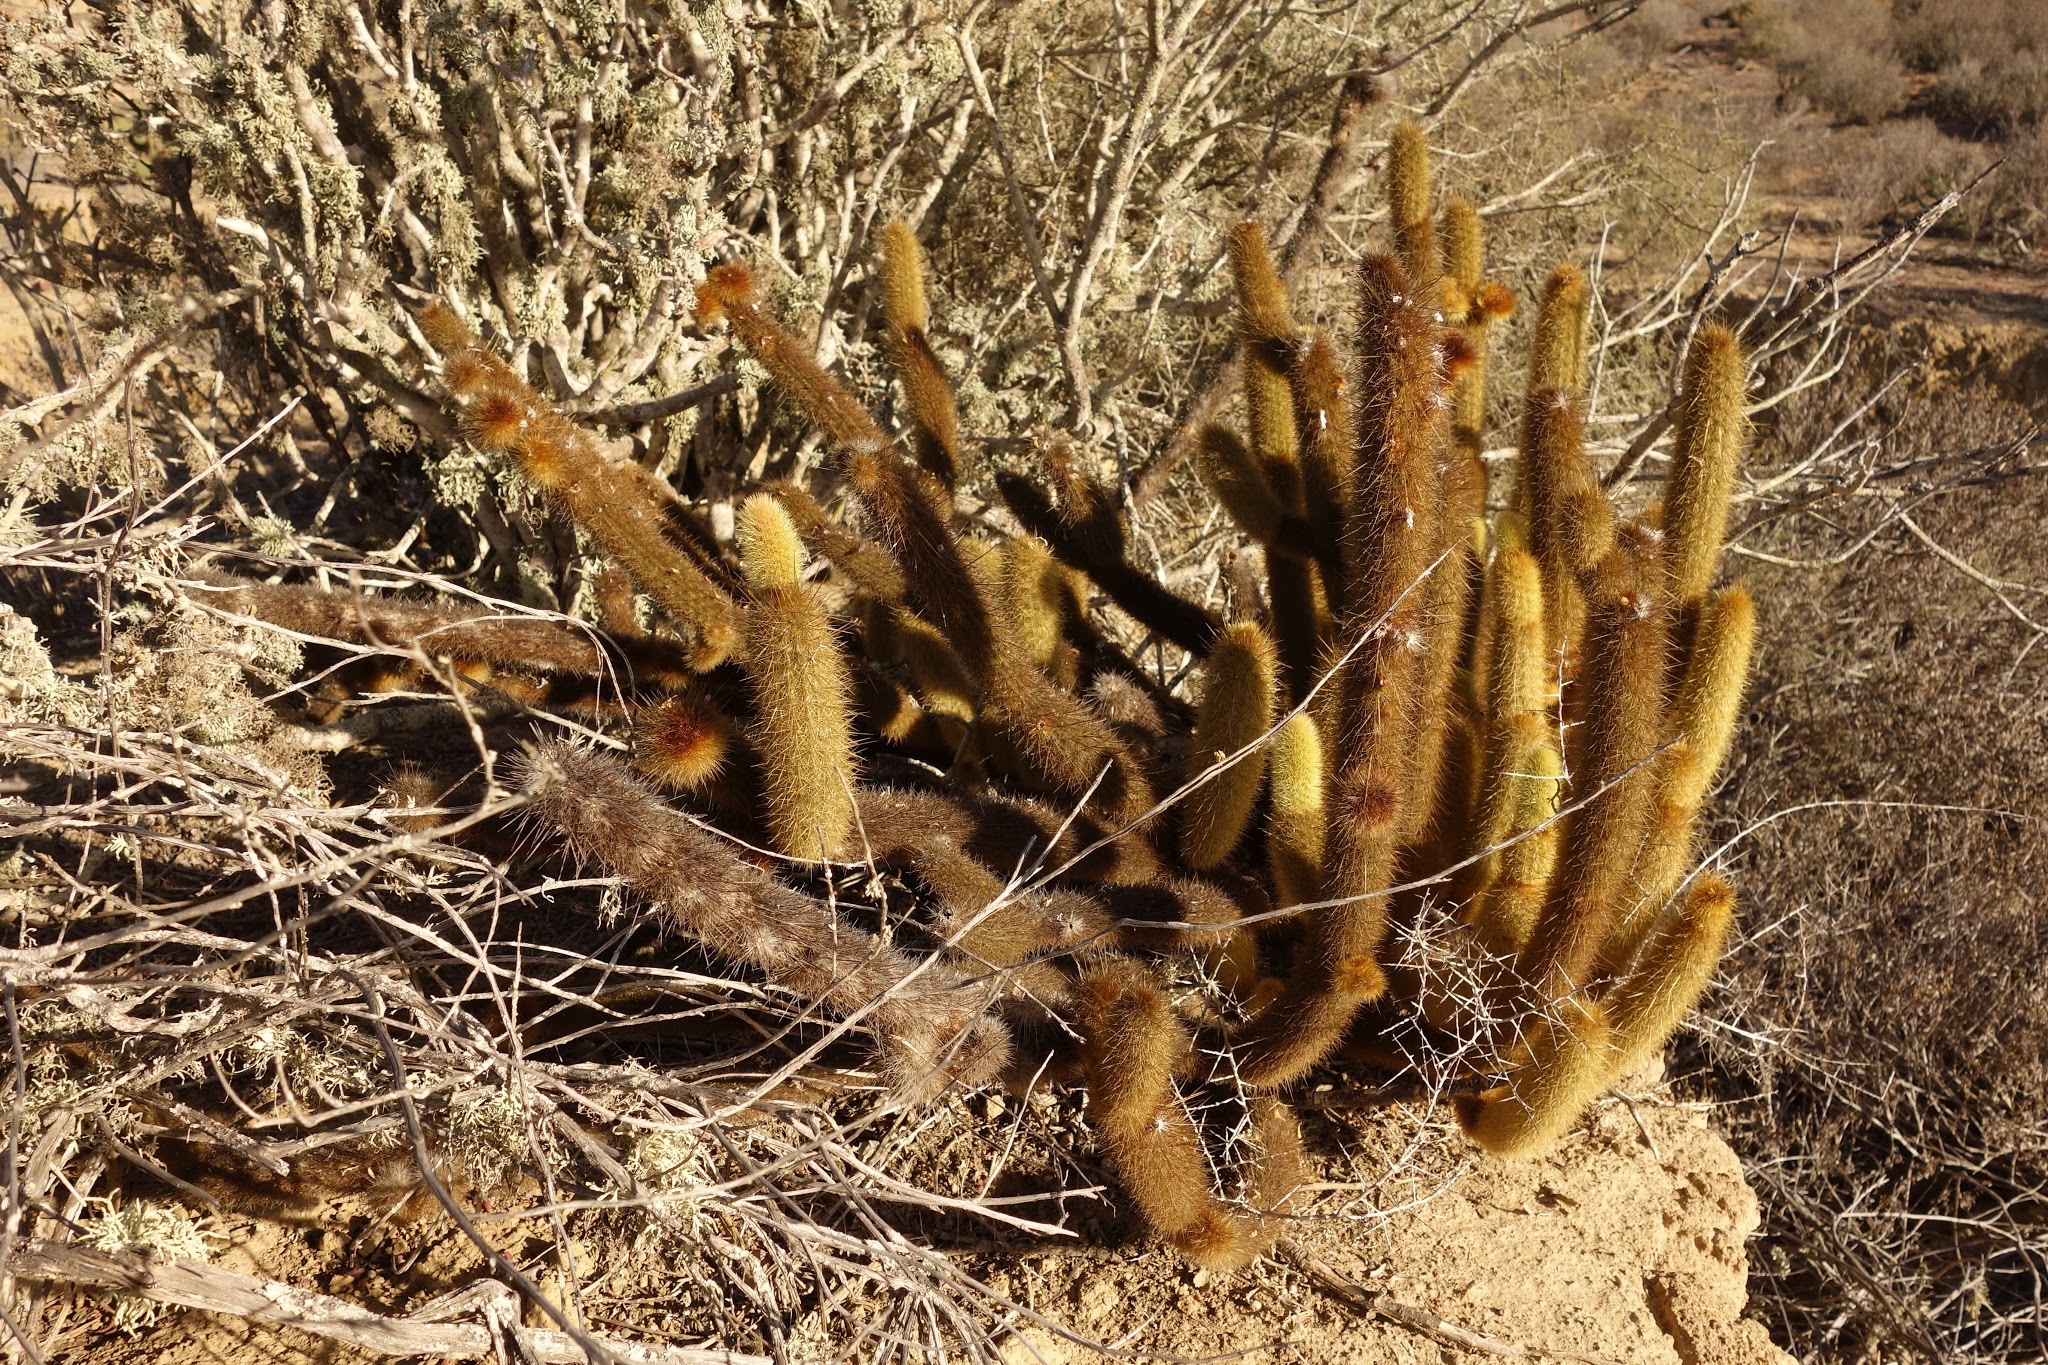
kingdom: Plantae
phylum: Tracheophyta
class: Magnoliopsida
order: Caryophyllales
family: Cactaceae
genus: Bergerocactus
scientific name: Bergerocactus emoryi
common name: Golden snakecactus
